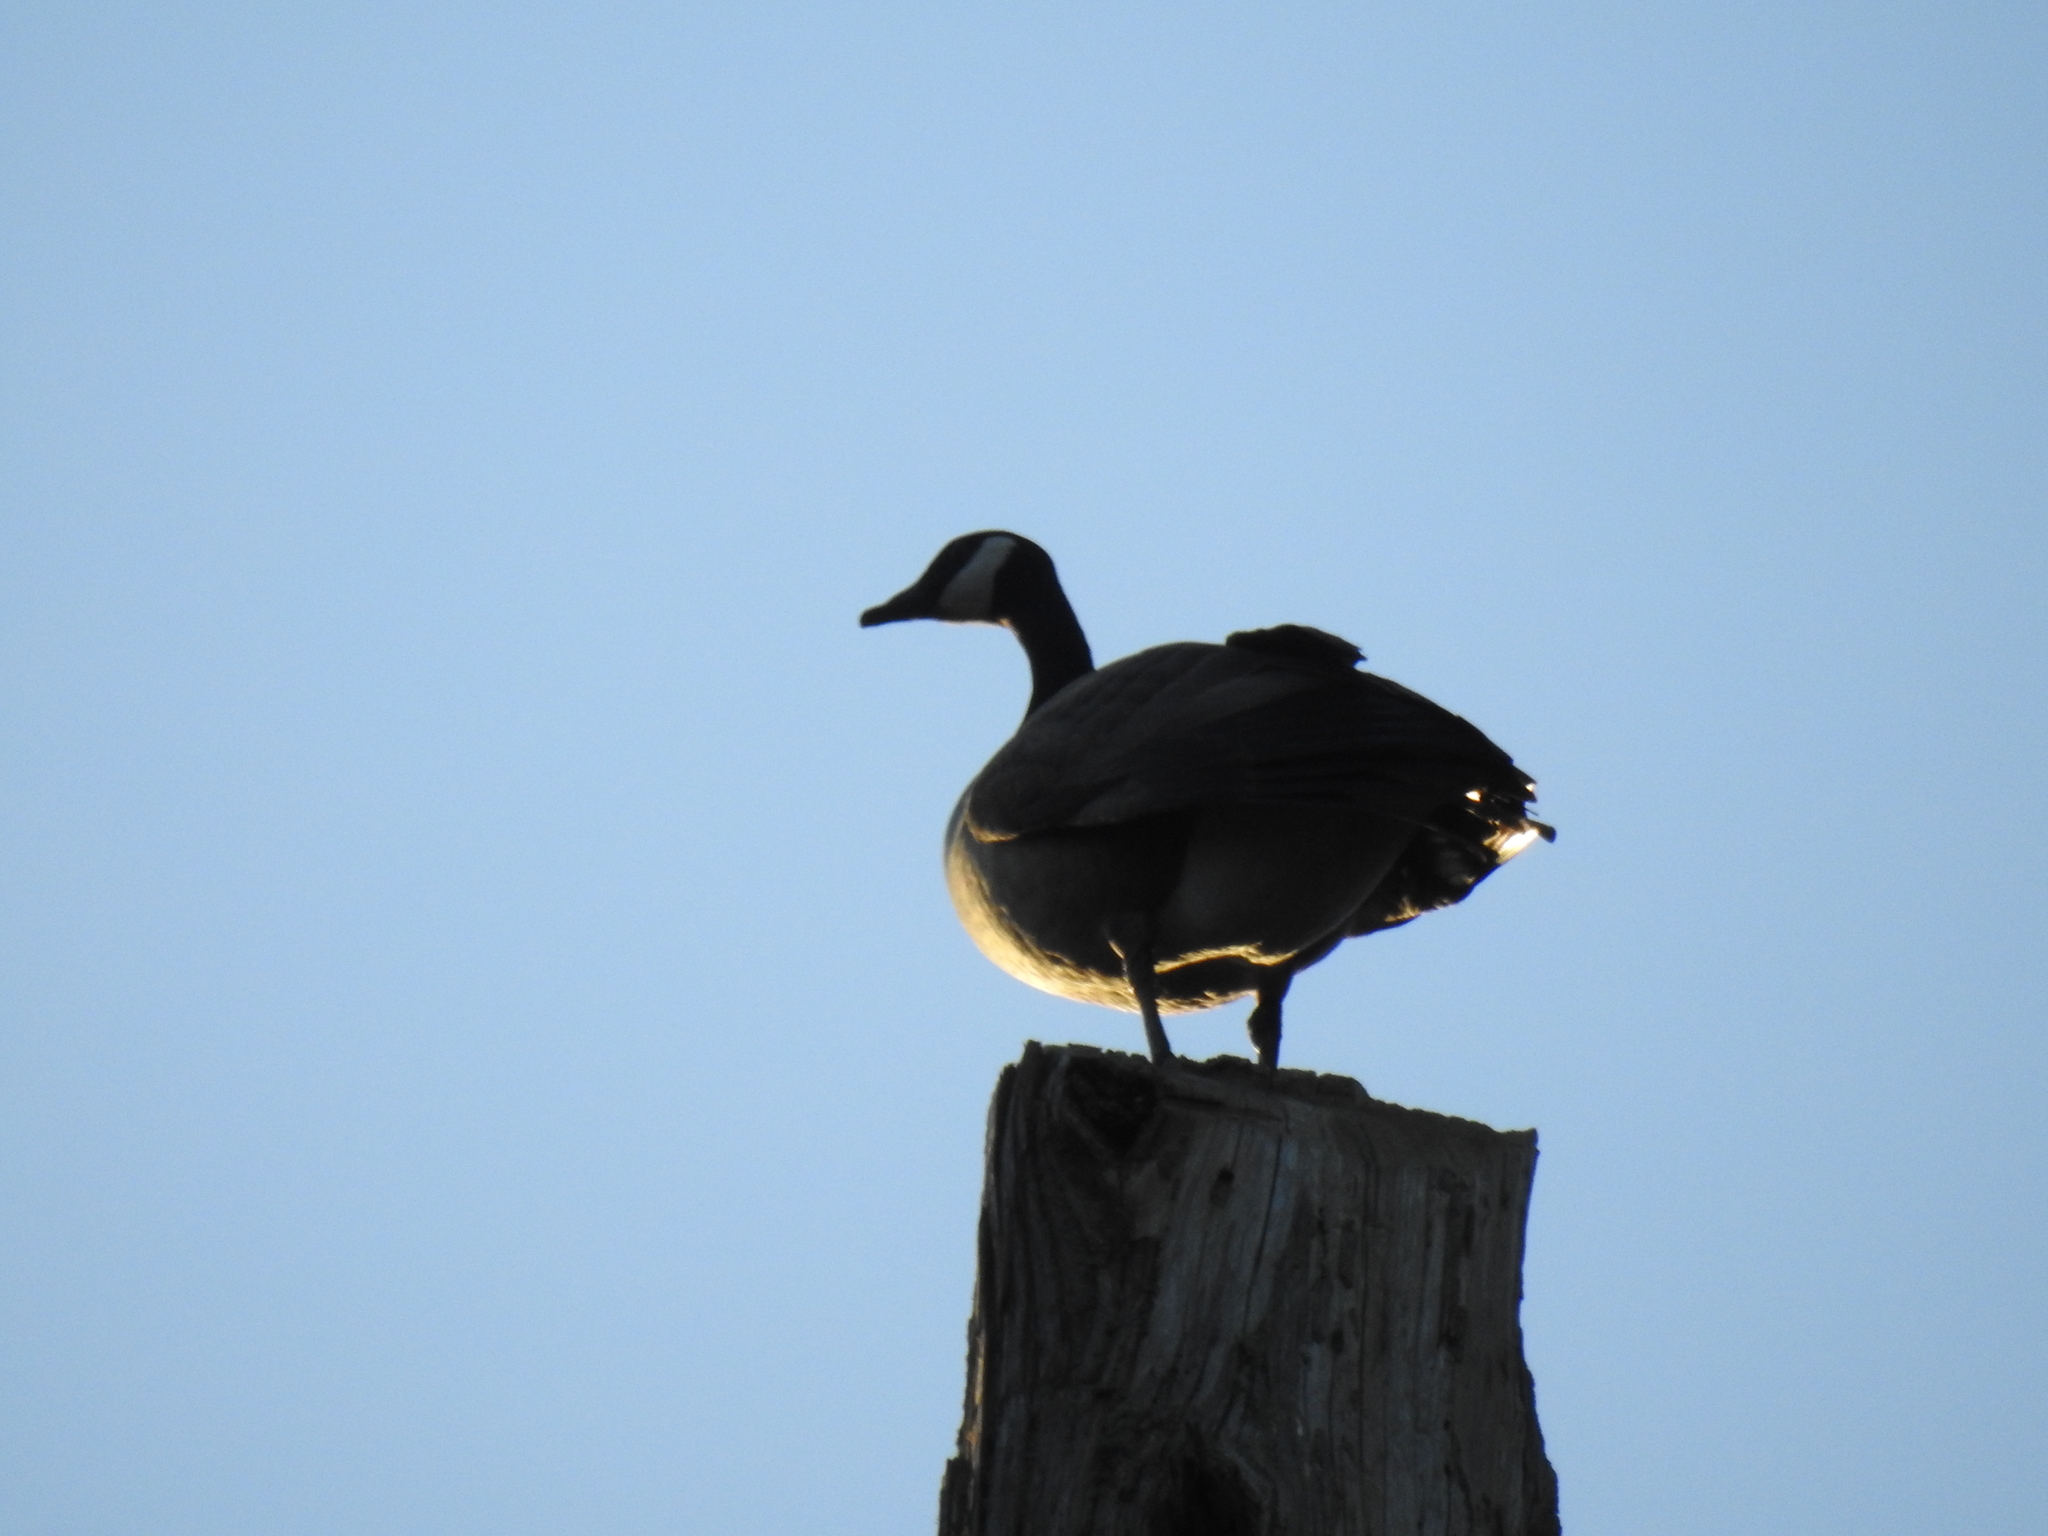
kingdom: Animalia
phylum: Chordata
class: Aves
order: Anseriformes
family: Anatidae
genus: Branta
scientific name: Branta canadensis
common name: Canada goose
